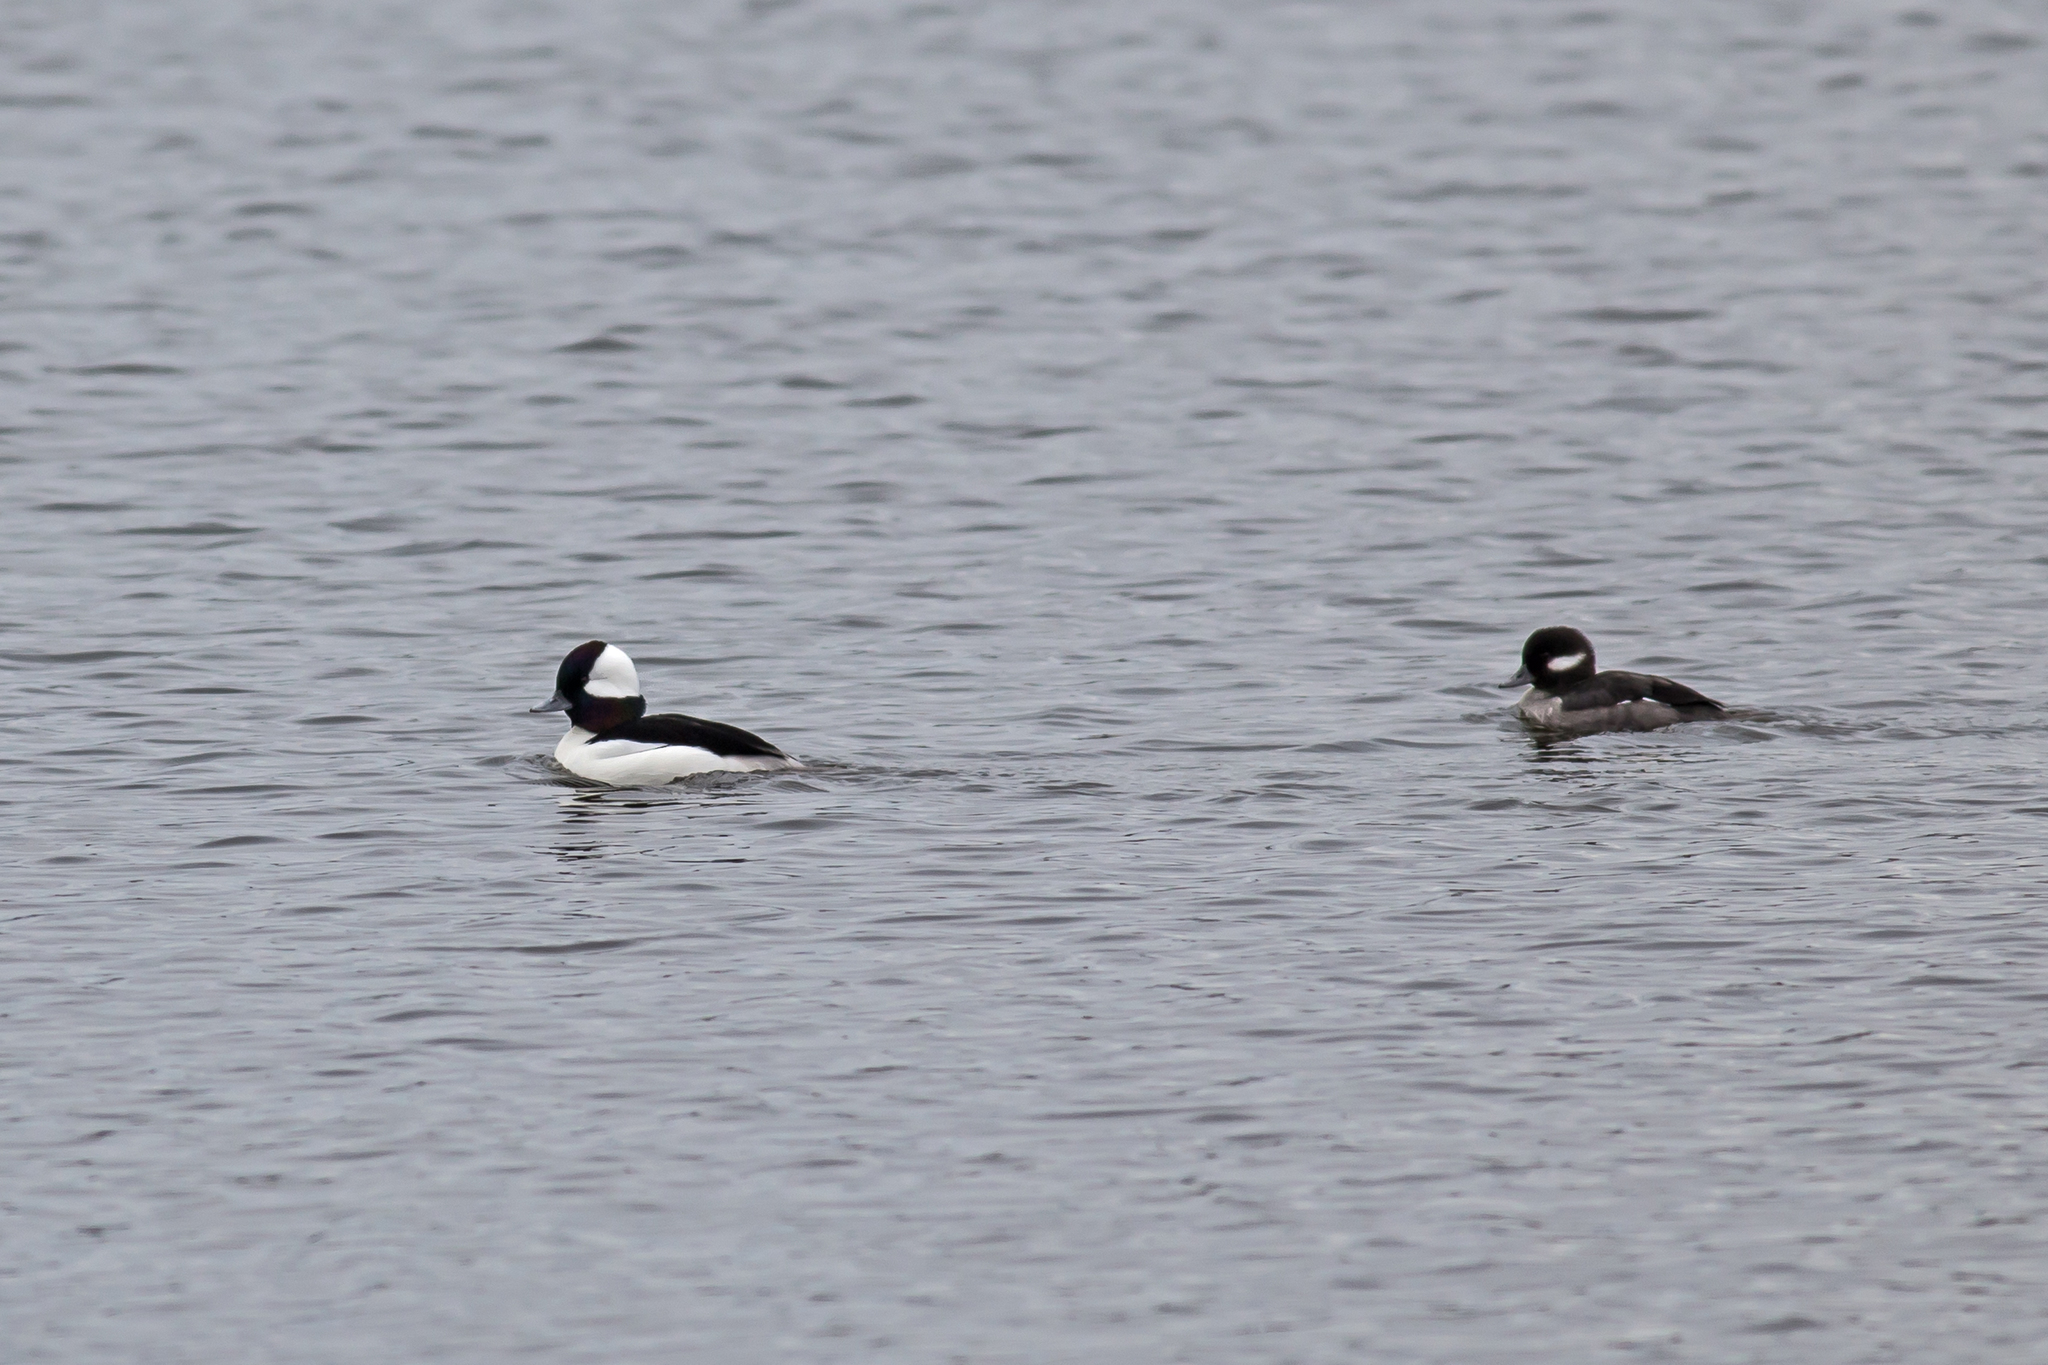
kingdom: Animalia
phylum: Chordata
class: Aves
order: Anseriformes
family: Anatidae
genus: Bucephala
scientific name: Bucephala albeola
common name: Bufflehead
